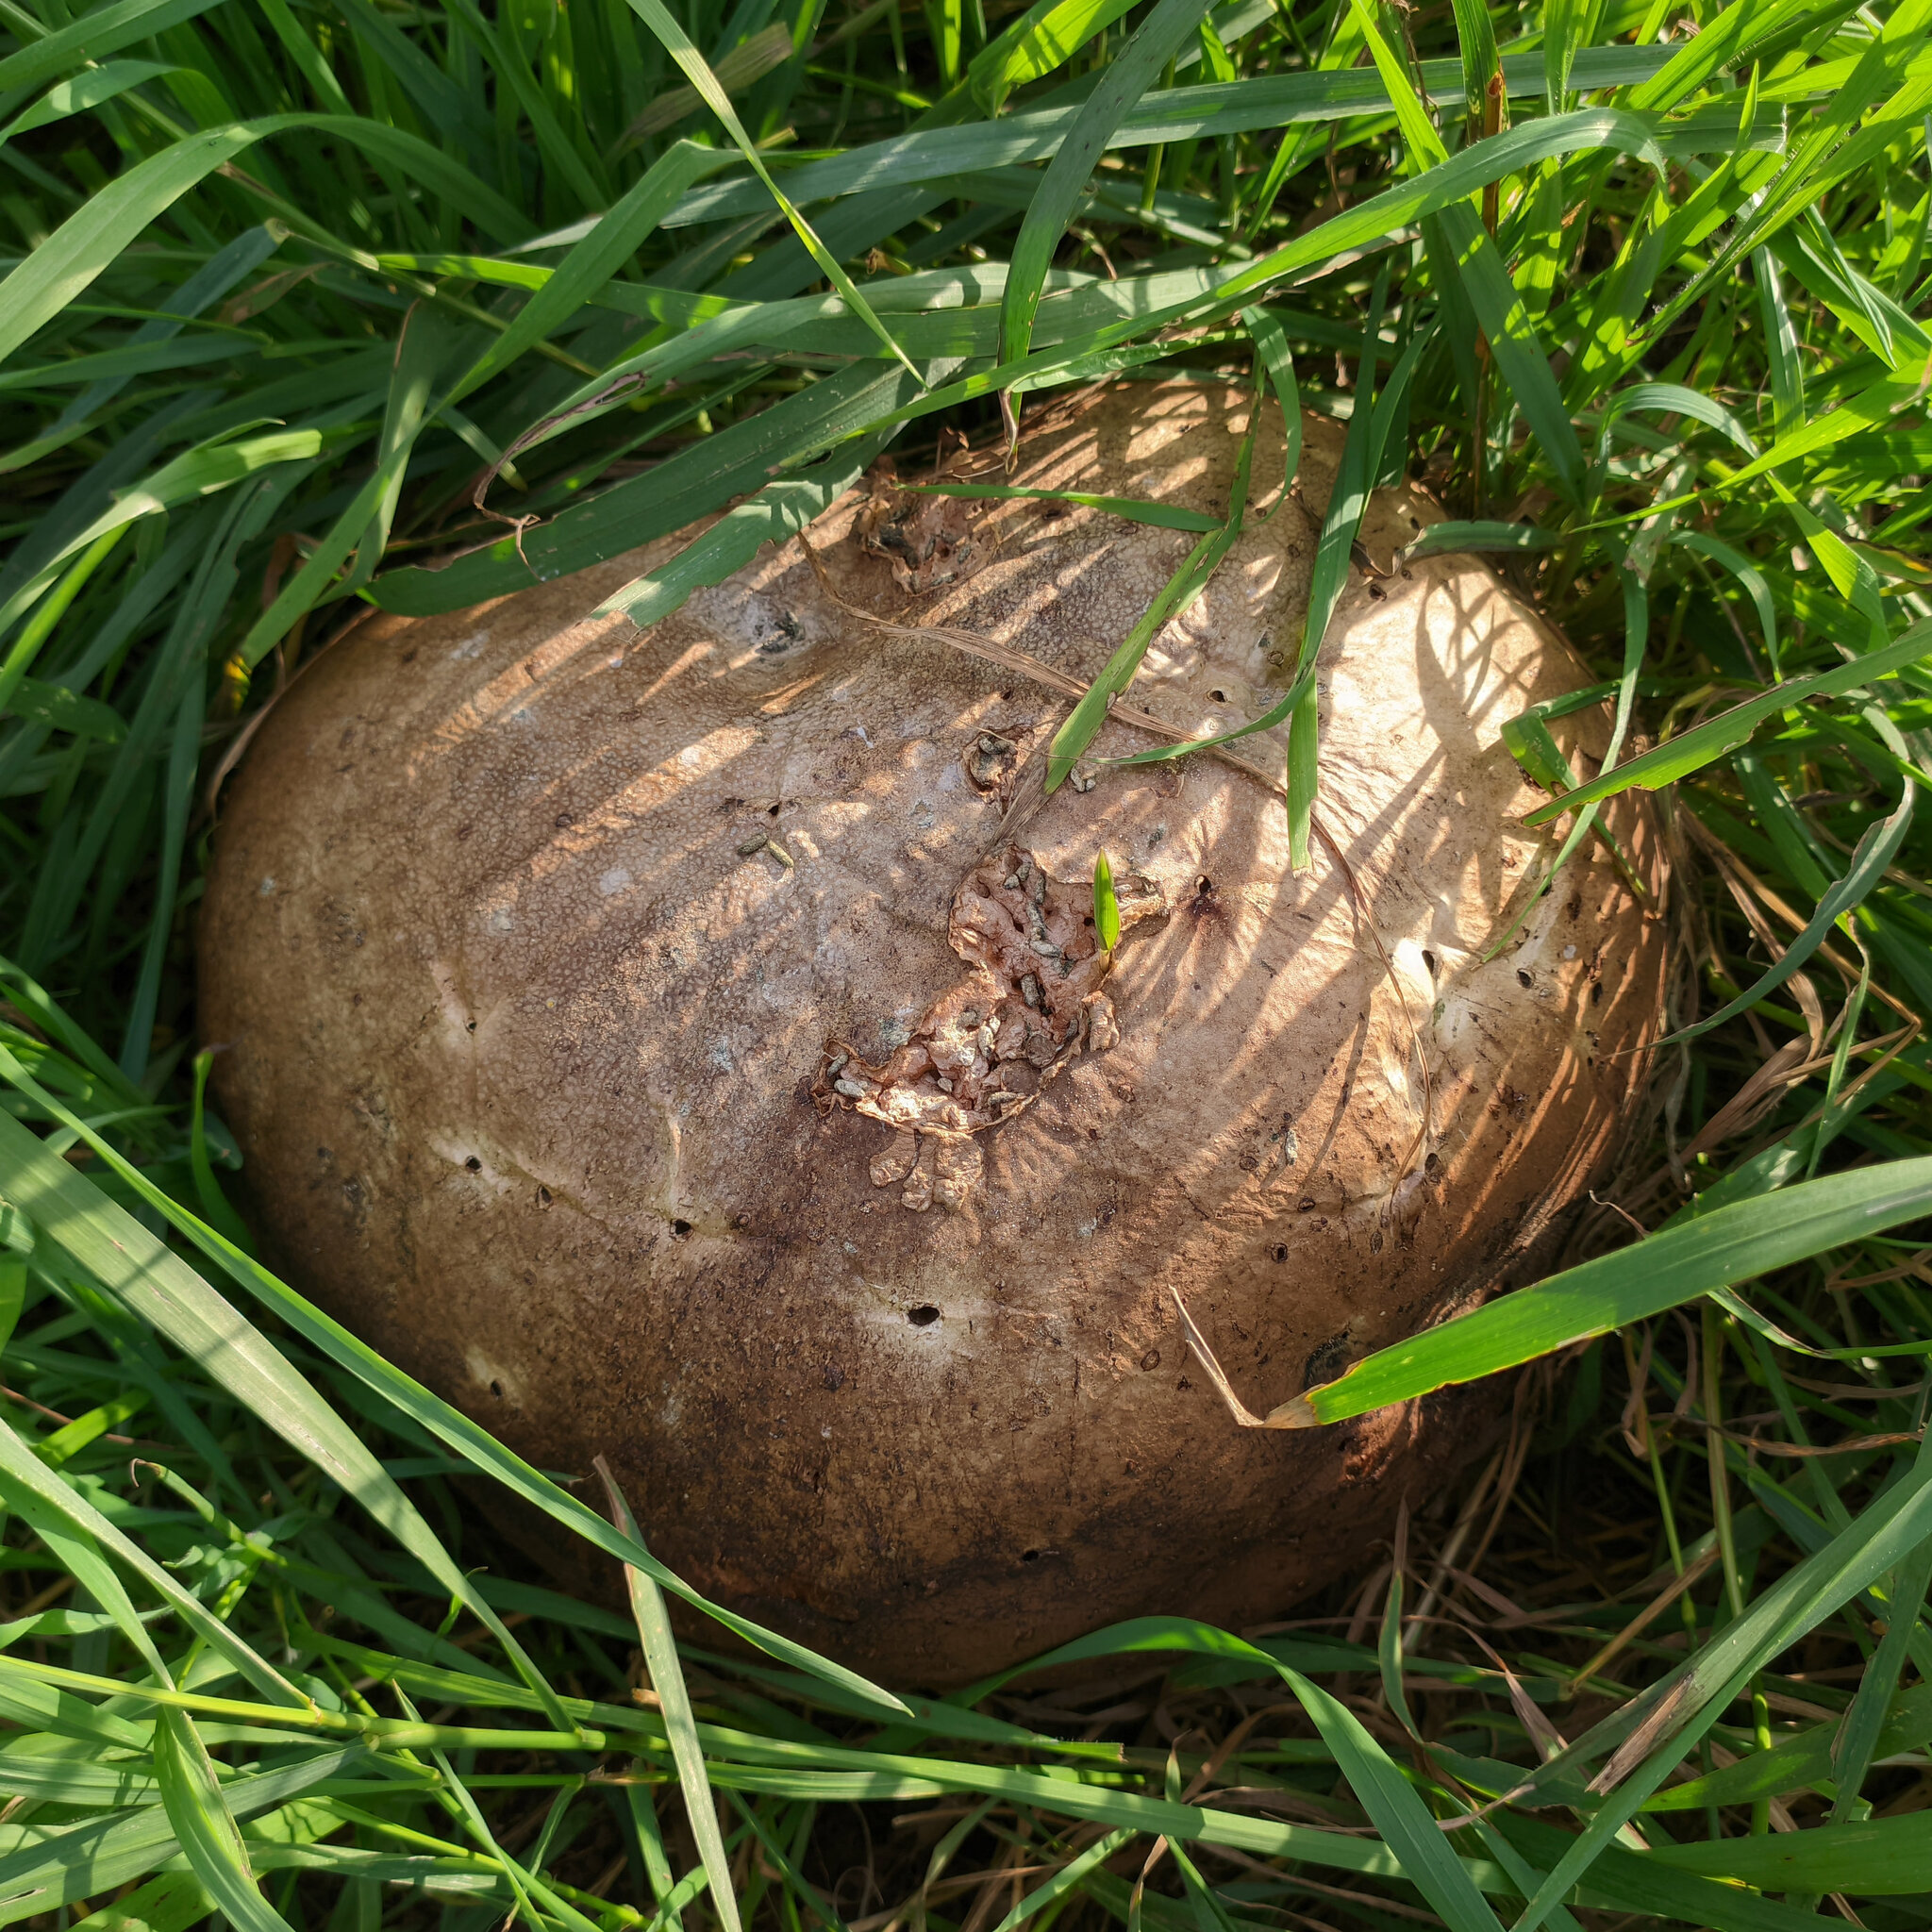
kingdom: Fungi
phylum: Basidiomycota
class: Agaricomycetes
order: Agaricales
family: Lycoperdaceae
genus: Calvatia
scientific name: Calvatia gigantea
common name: Giant puffball
